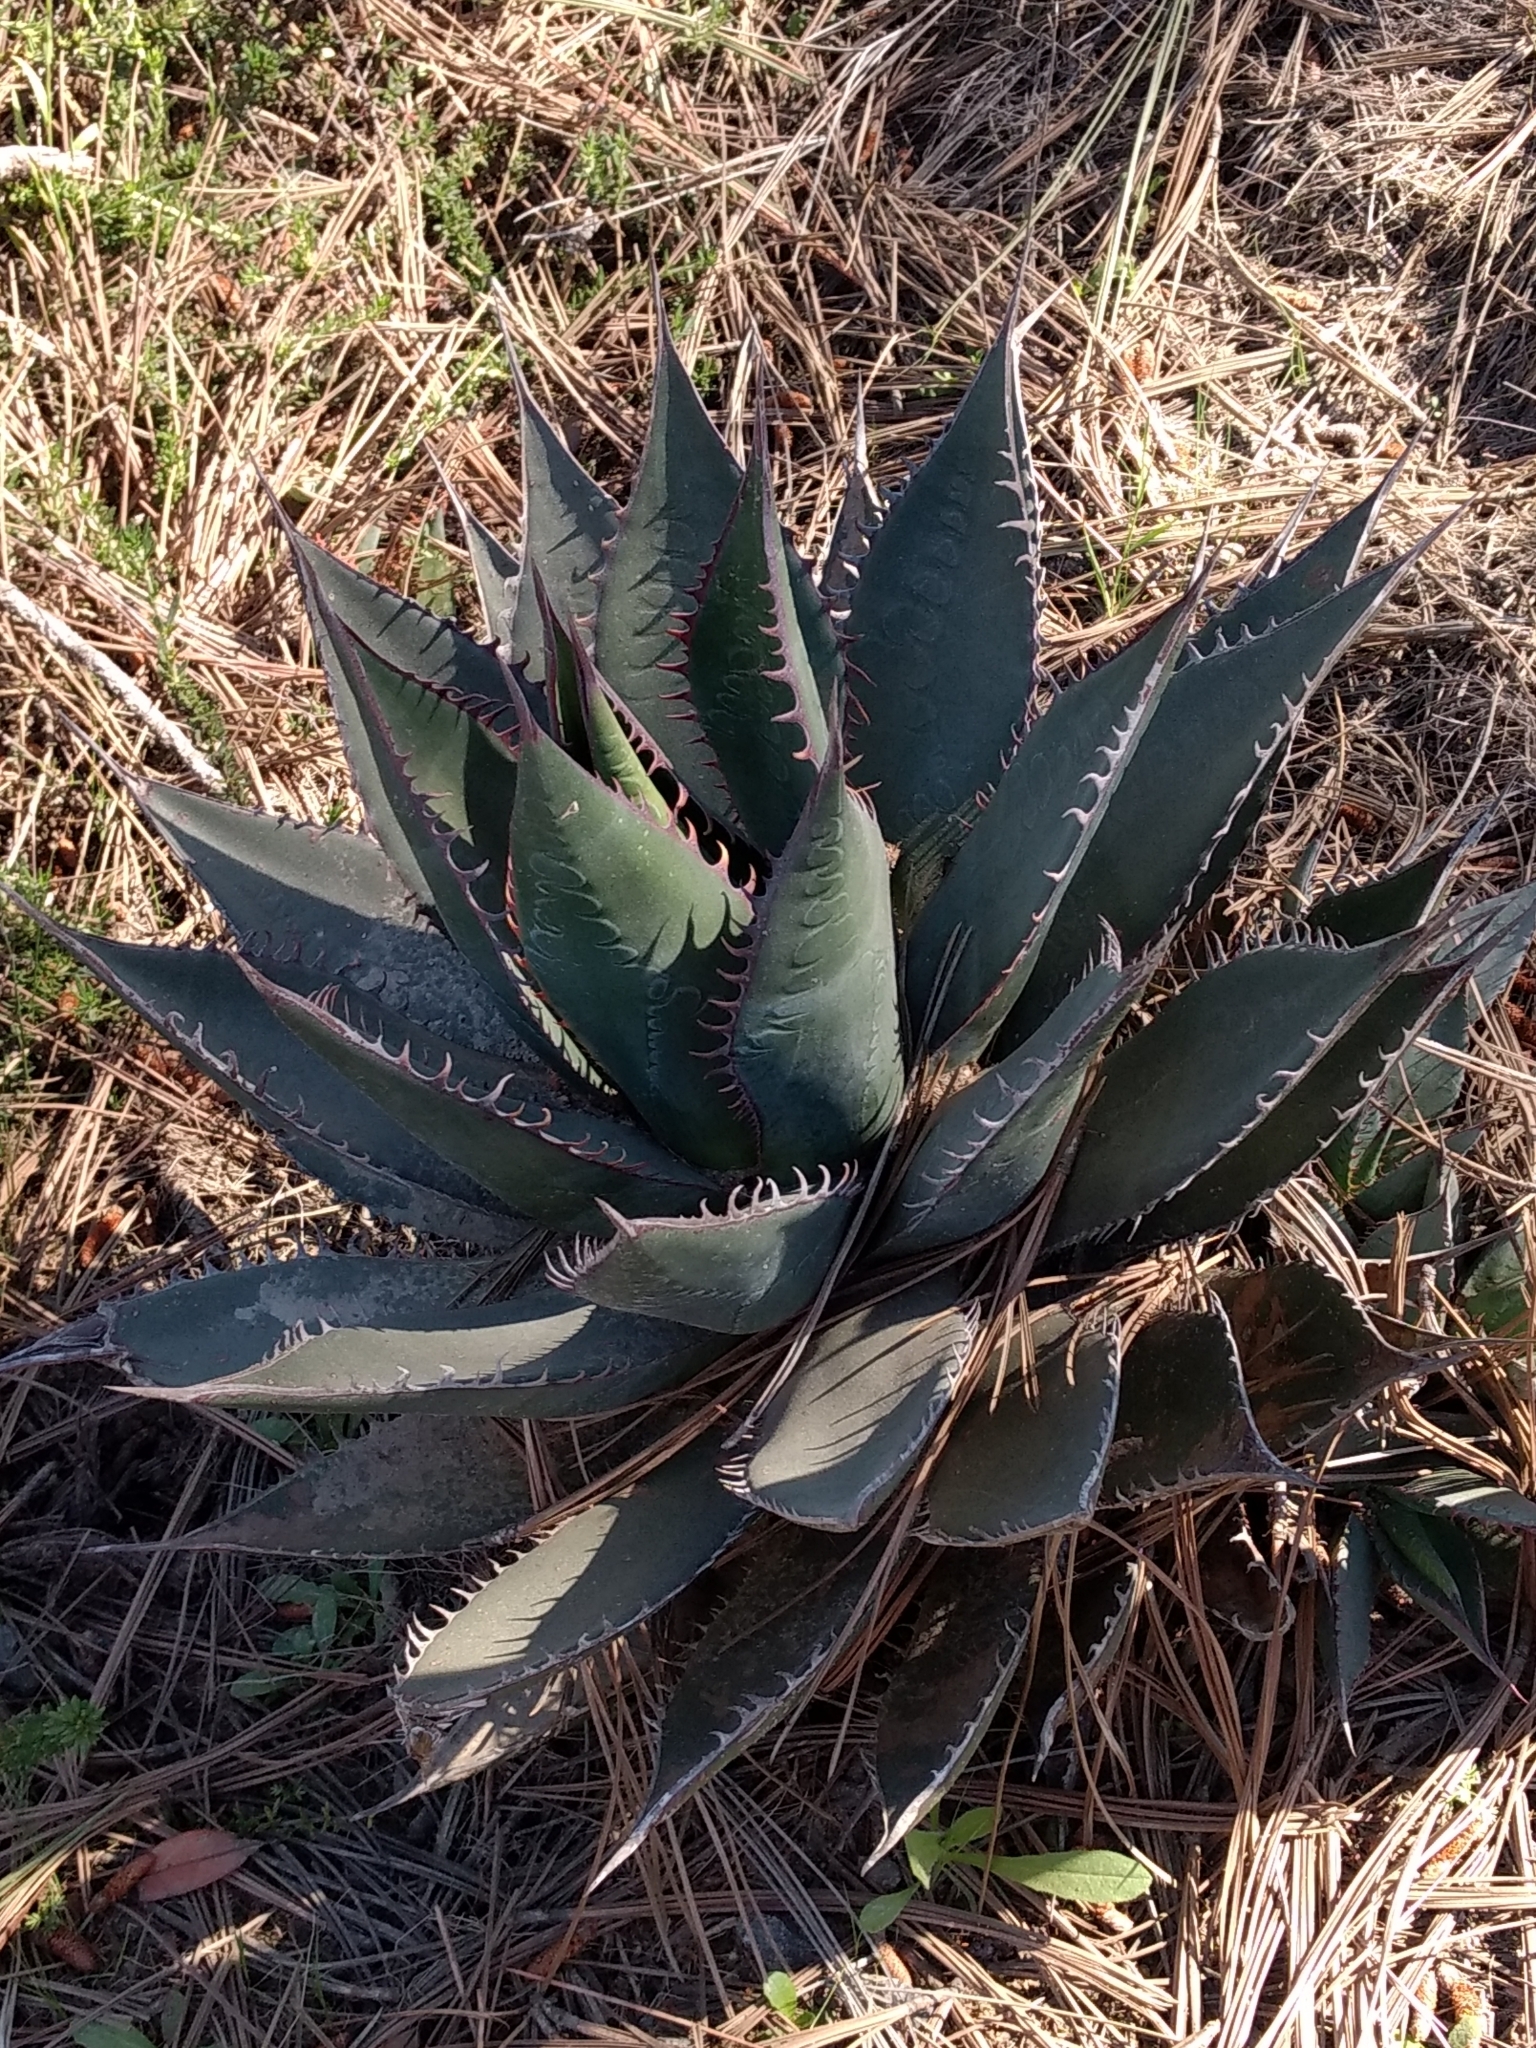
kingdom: Plantae
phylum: Tracheophyta
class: Liliopsida
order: Asparagales
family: Asparagaceae
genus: Agave
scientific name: Agave shawii
